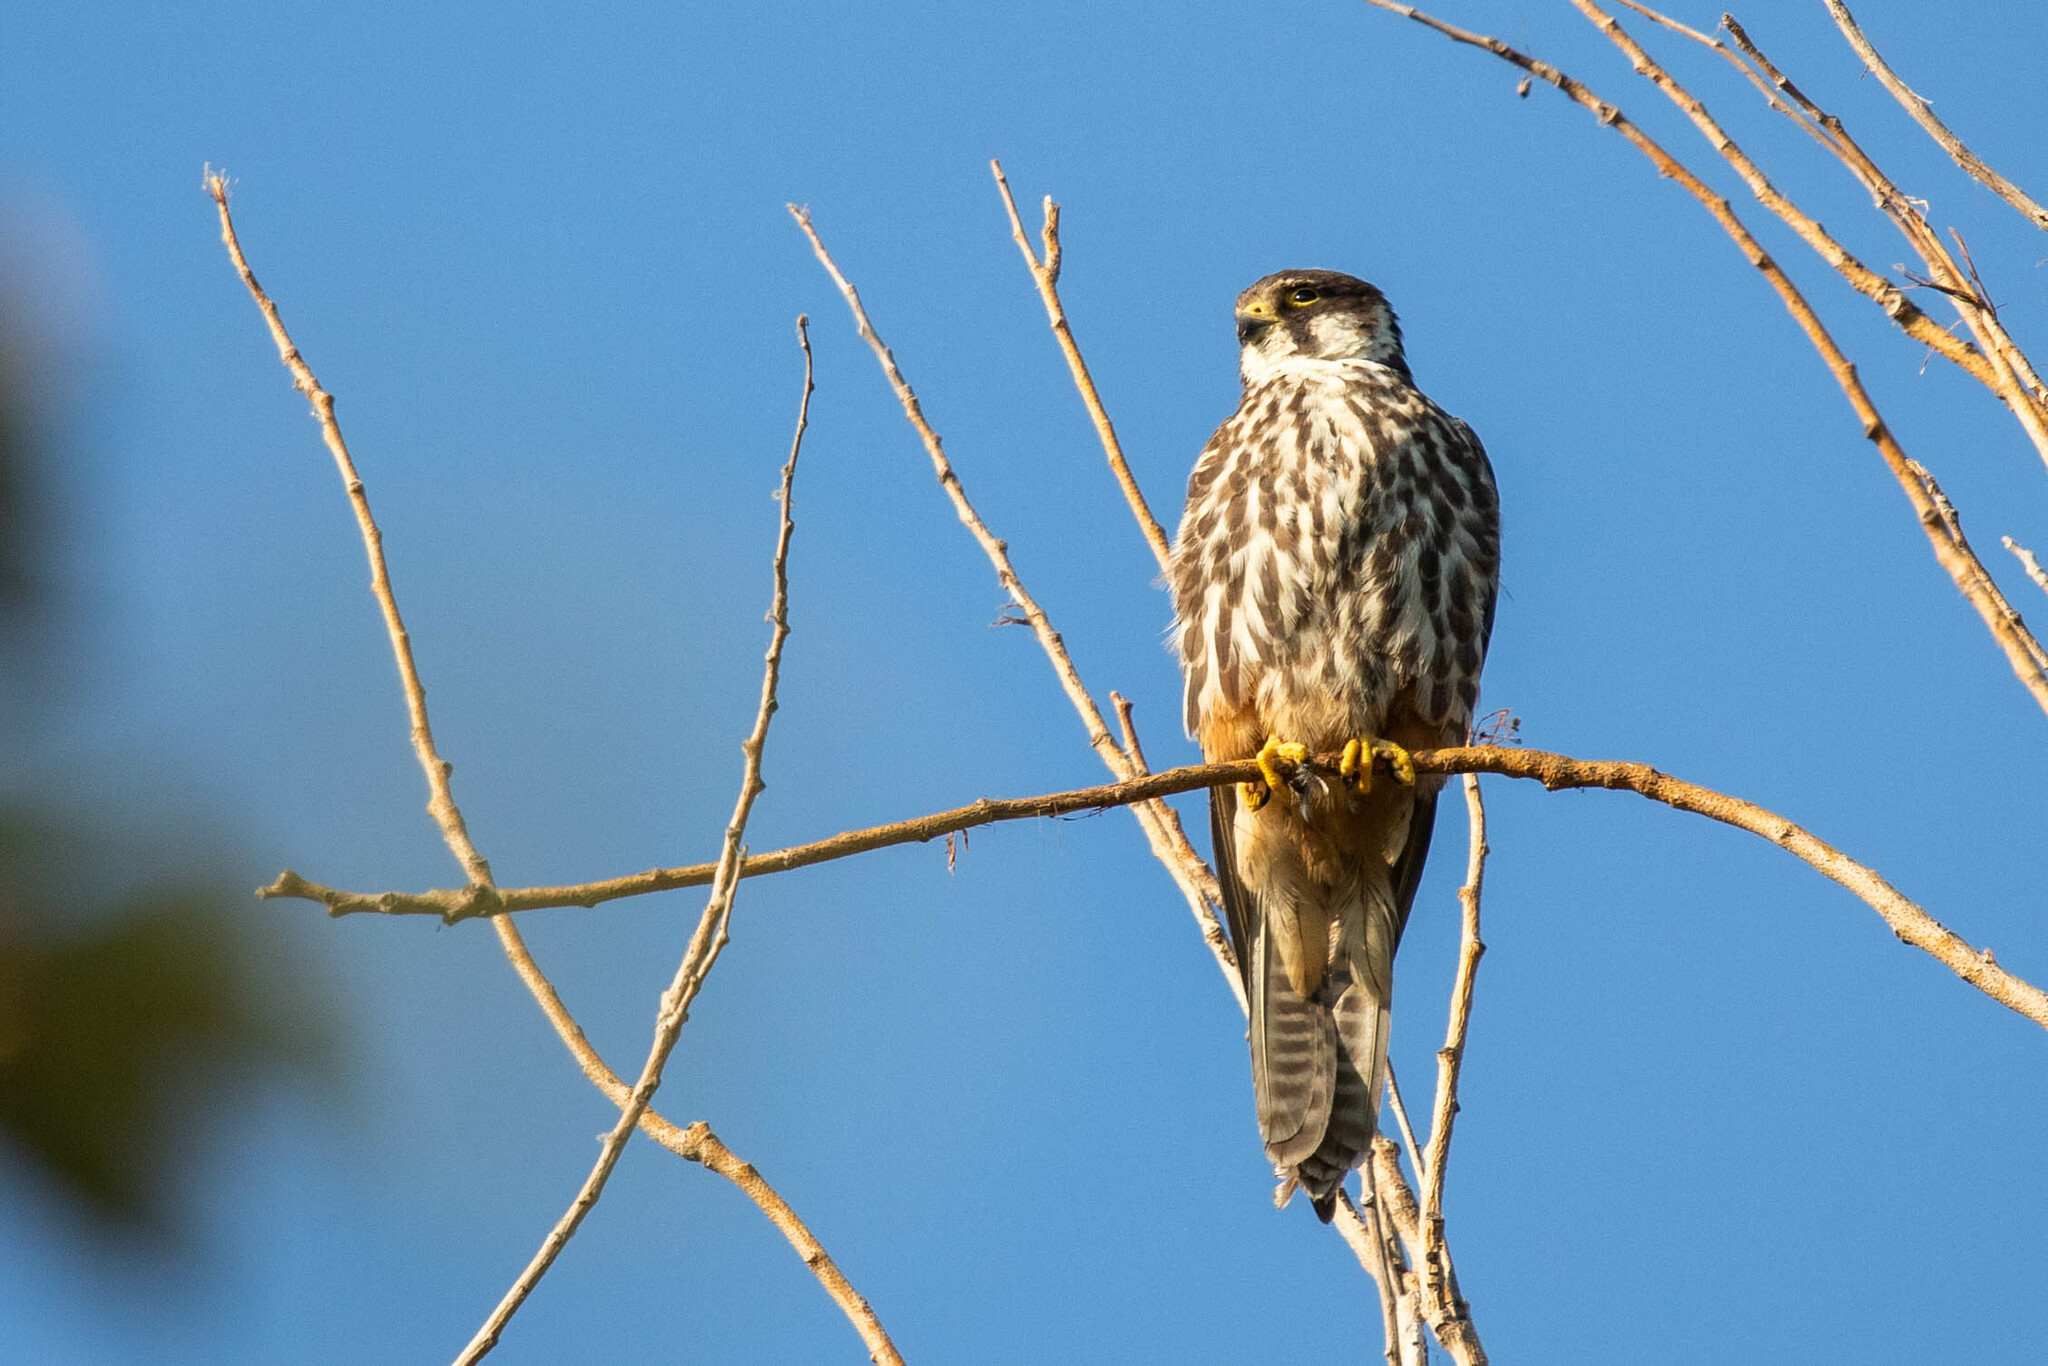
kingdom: Animalia
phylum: Chordata
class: Aves
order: Falconiformes
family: Falconidae
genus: Falco
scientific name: Falco subbuteo
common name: Eurasian hobby
